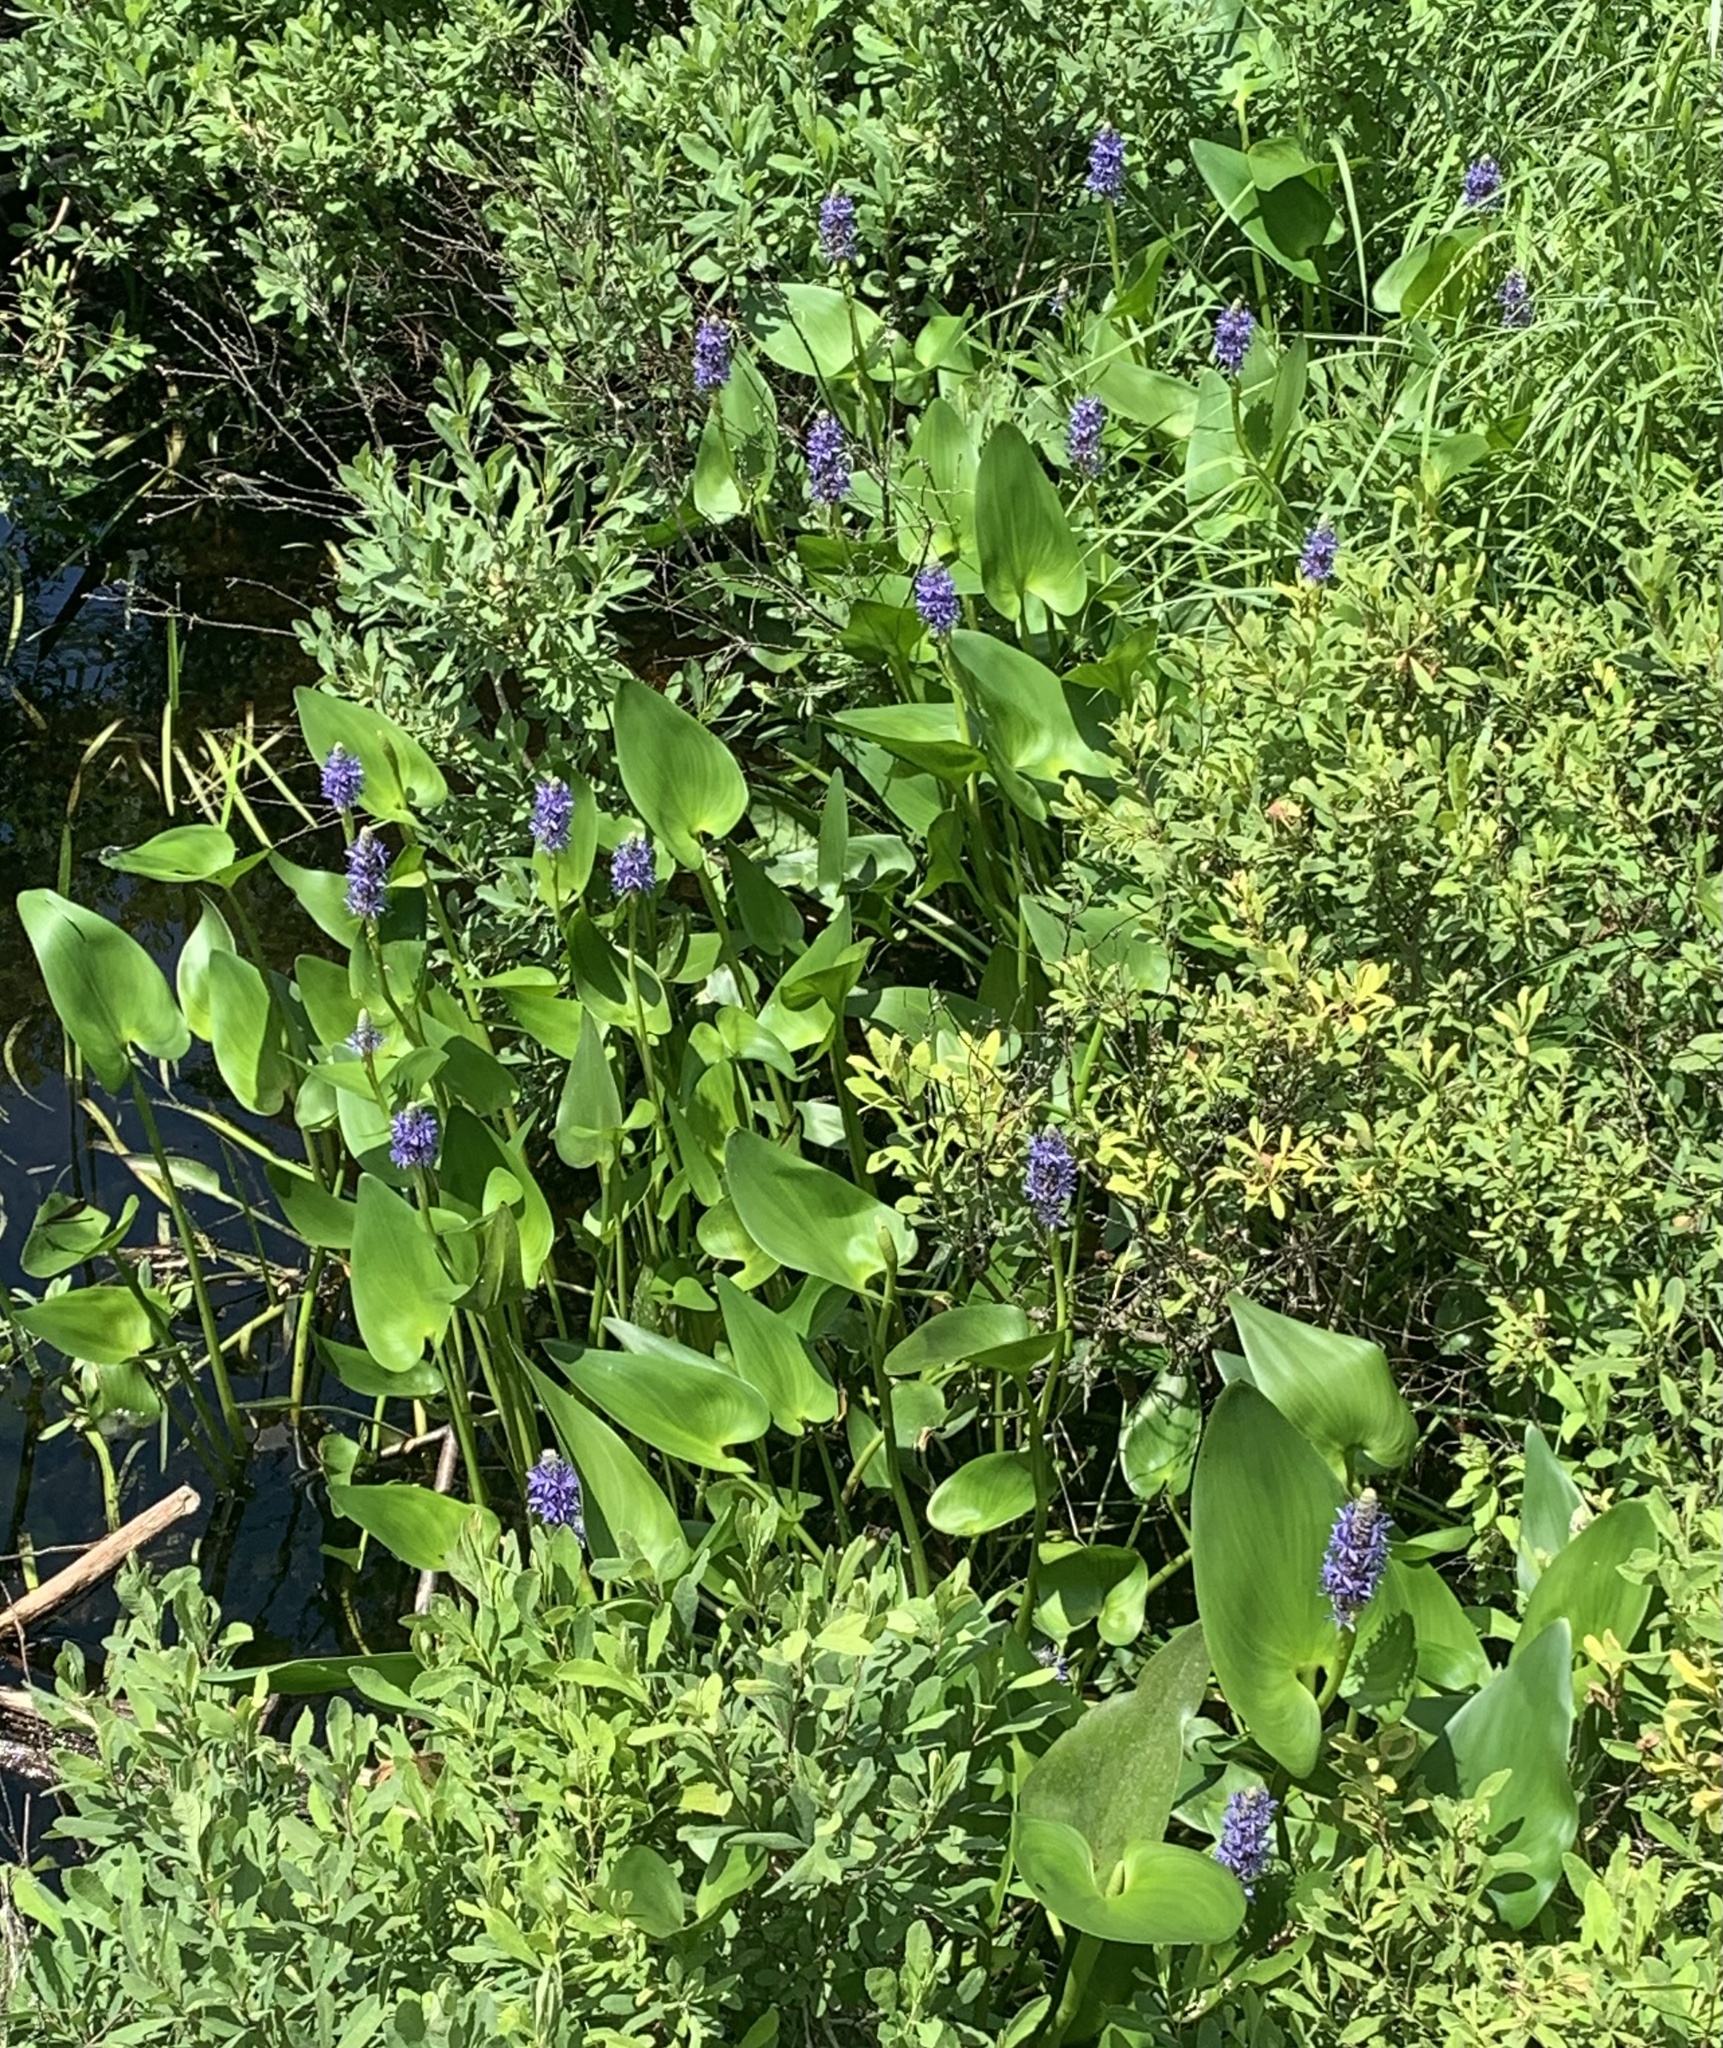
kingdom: Plantae
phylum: Tracheophyta
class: Liliopsida
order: Commelinales
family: Pontederiaceae
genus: Pontederia
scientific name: Pontederia cordata
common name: Pickerelweed
